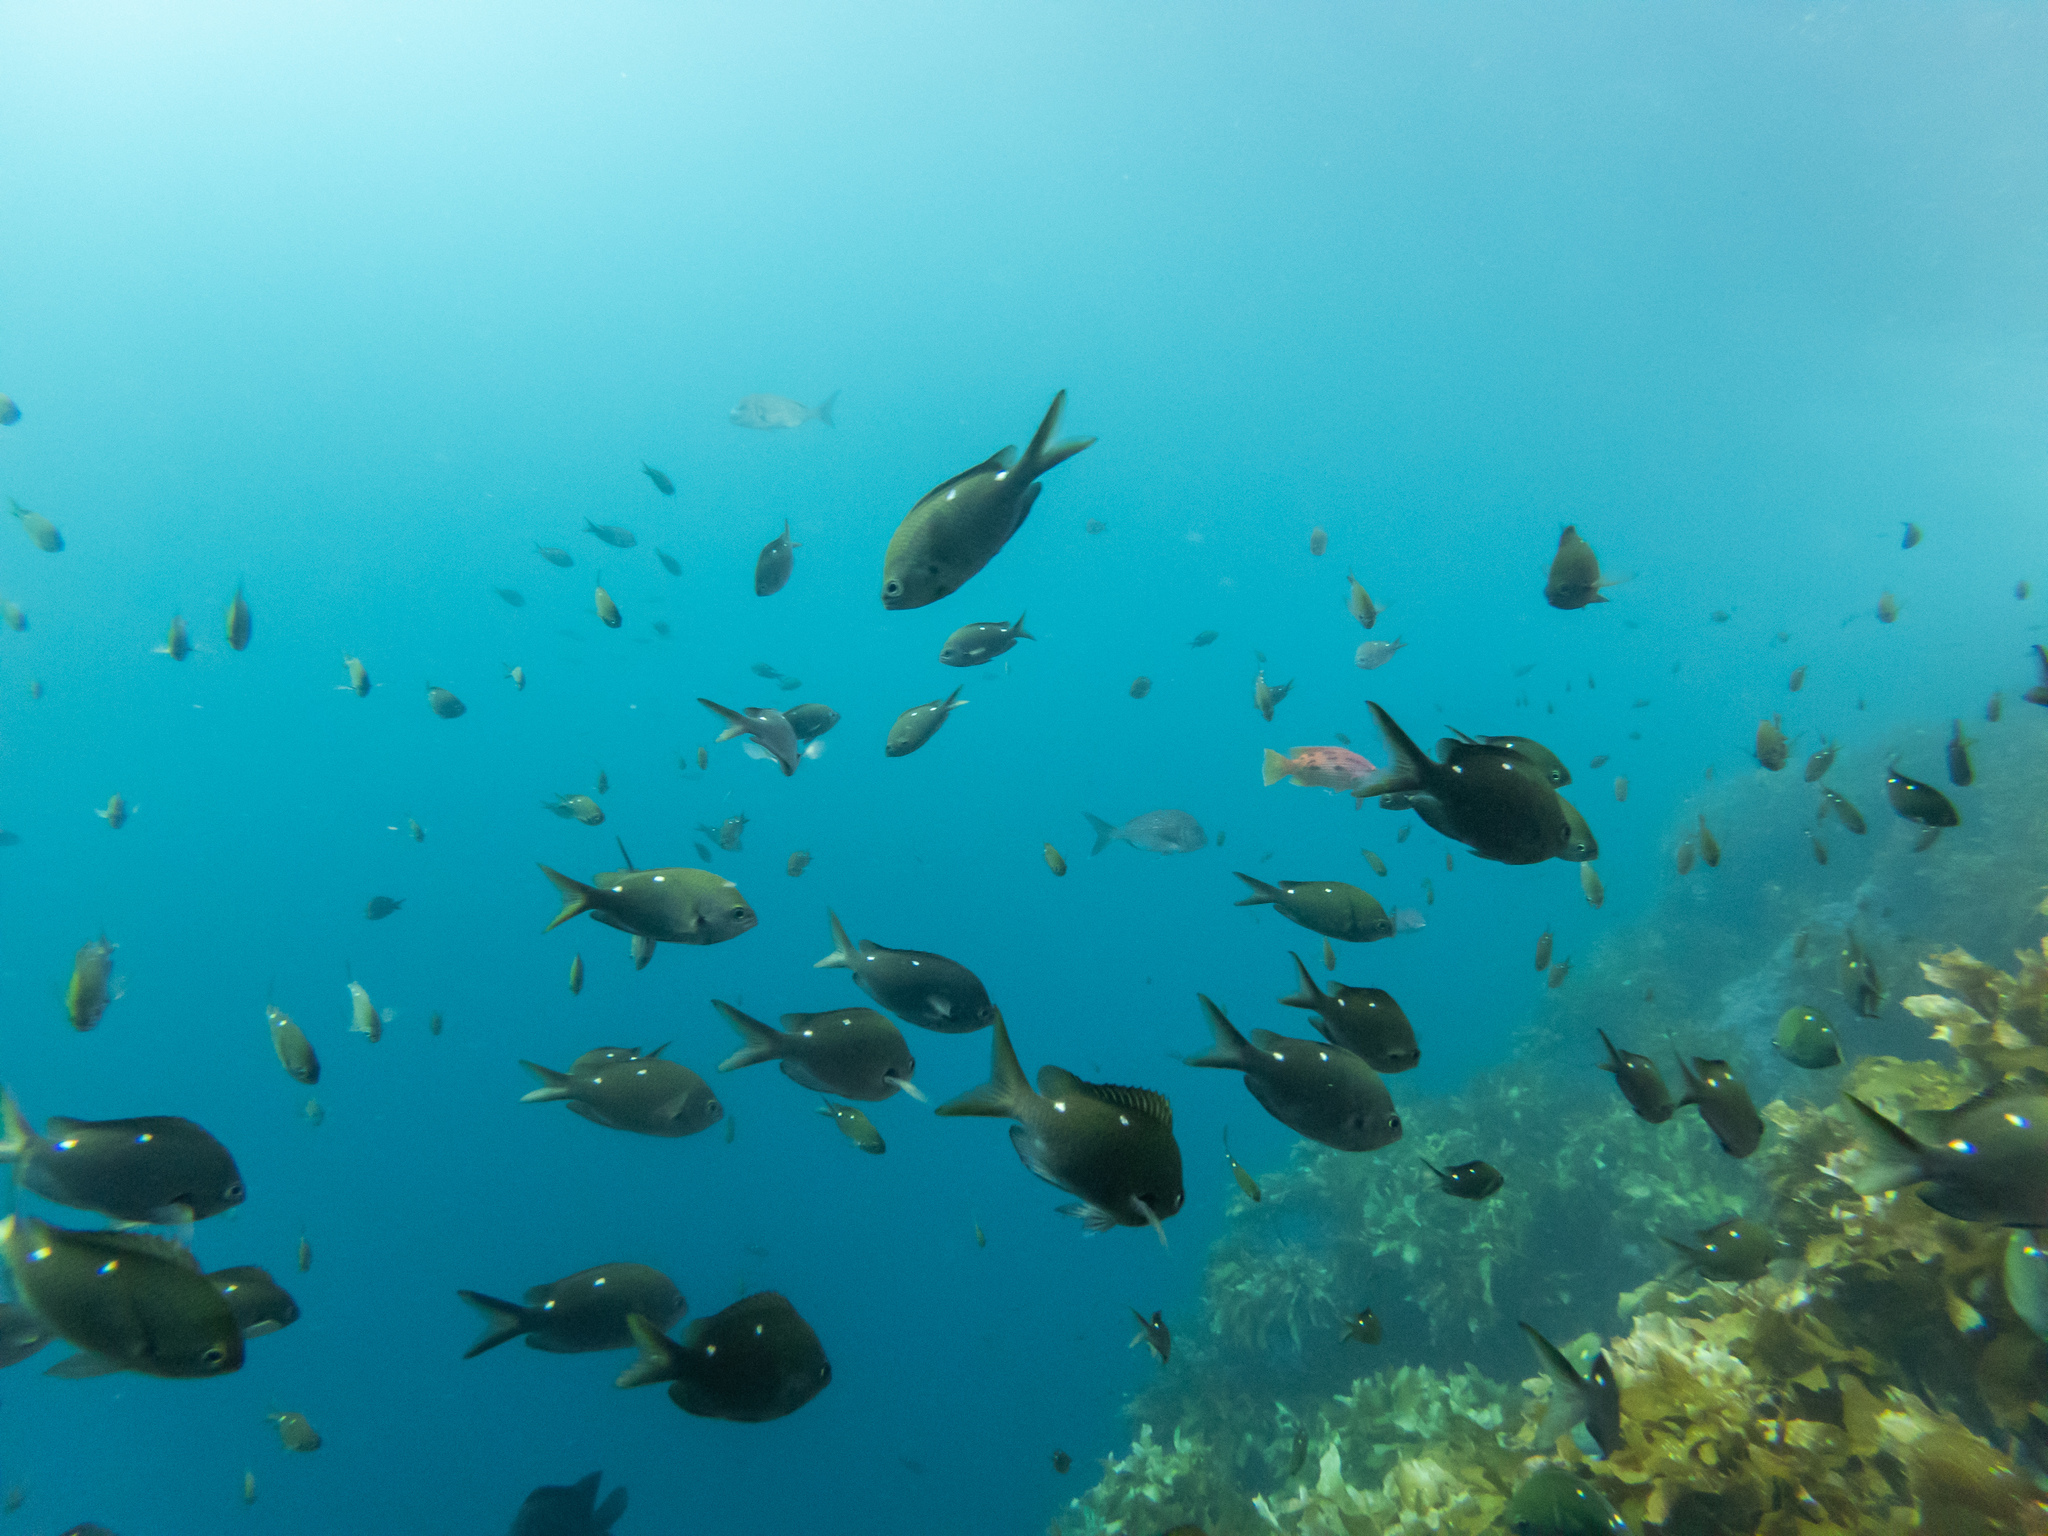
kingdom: Animalia
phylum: Chordata
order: Perciformes
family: Pomacentridae
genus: Chromis
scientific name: Chromis dispilus
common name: Demoiselle
